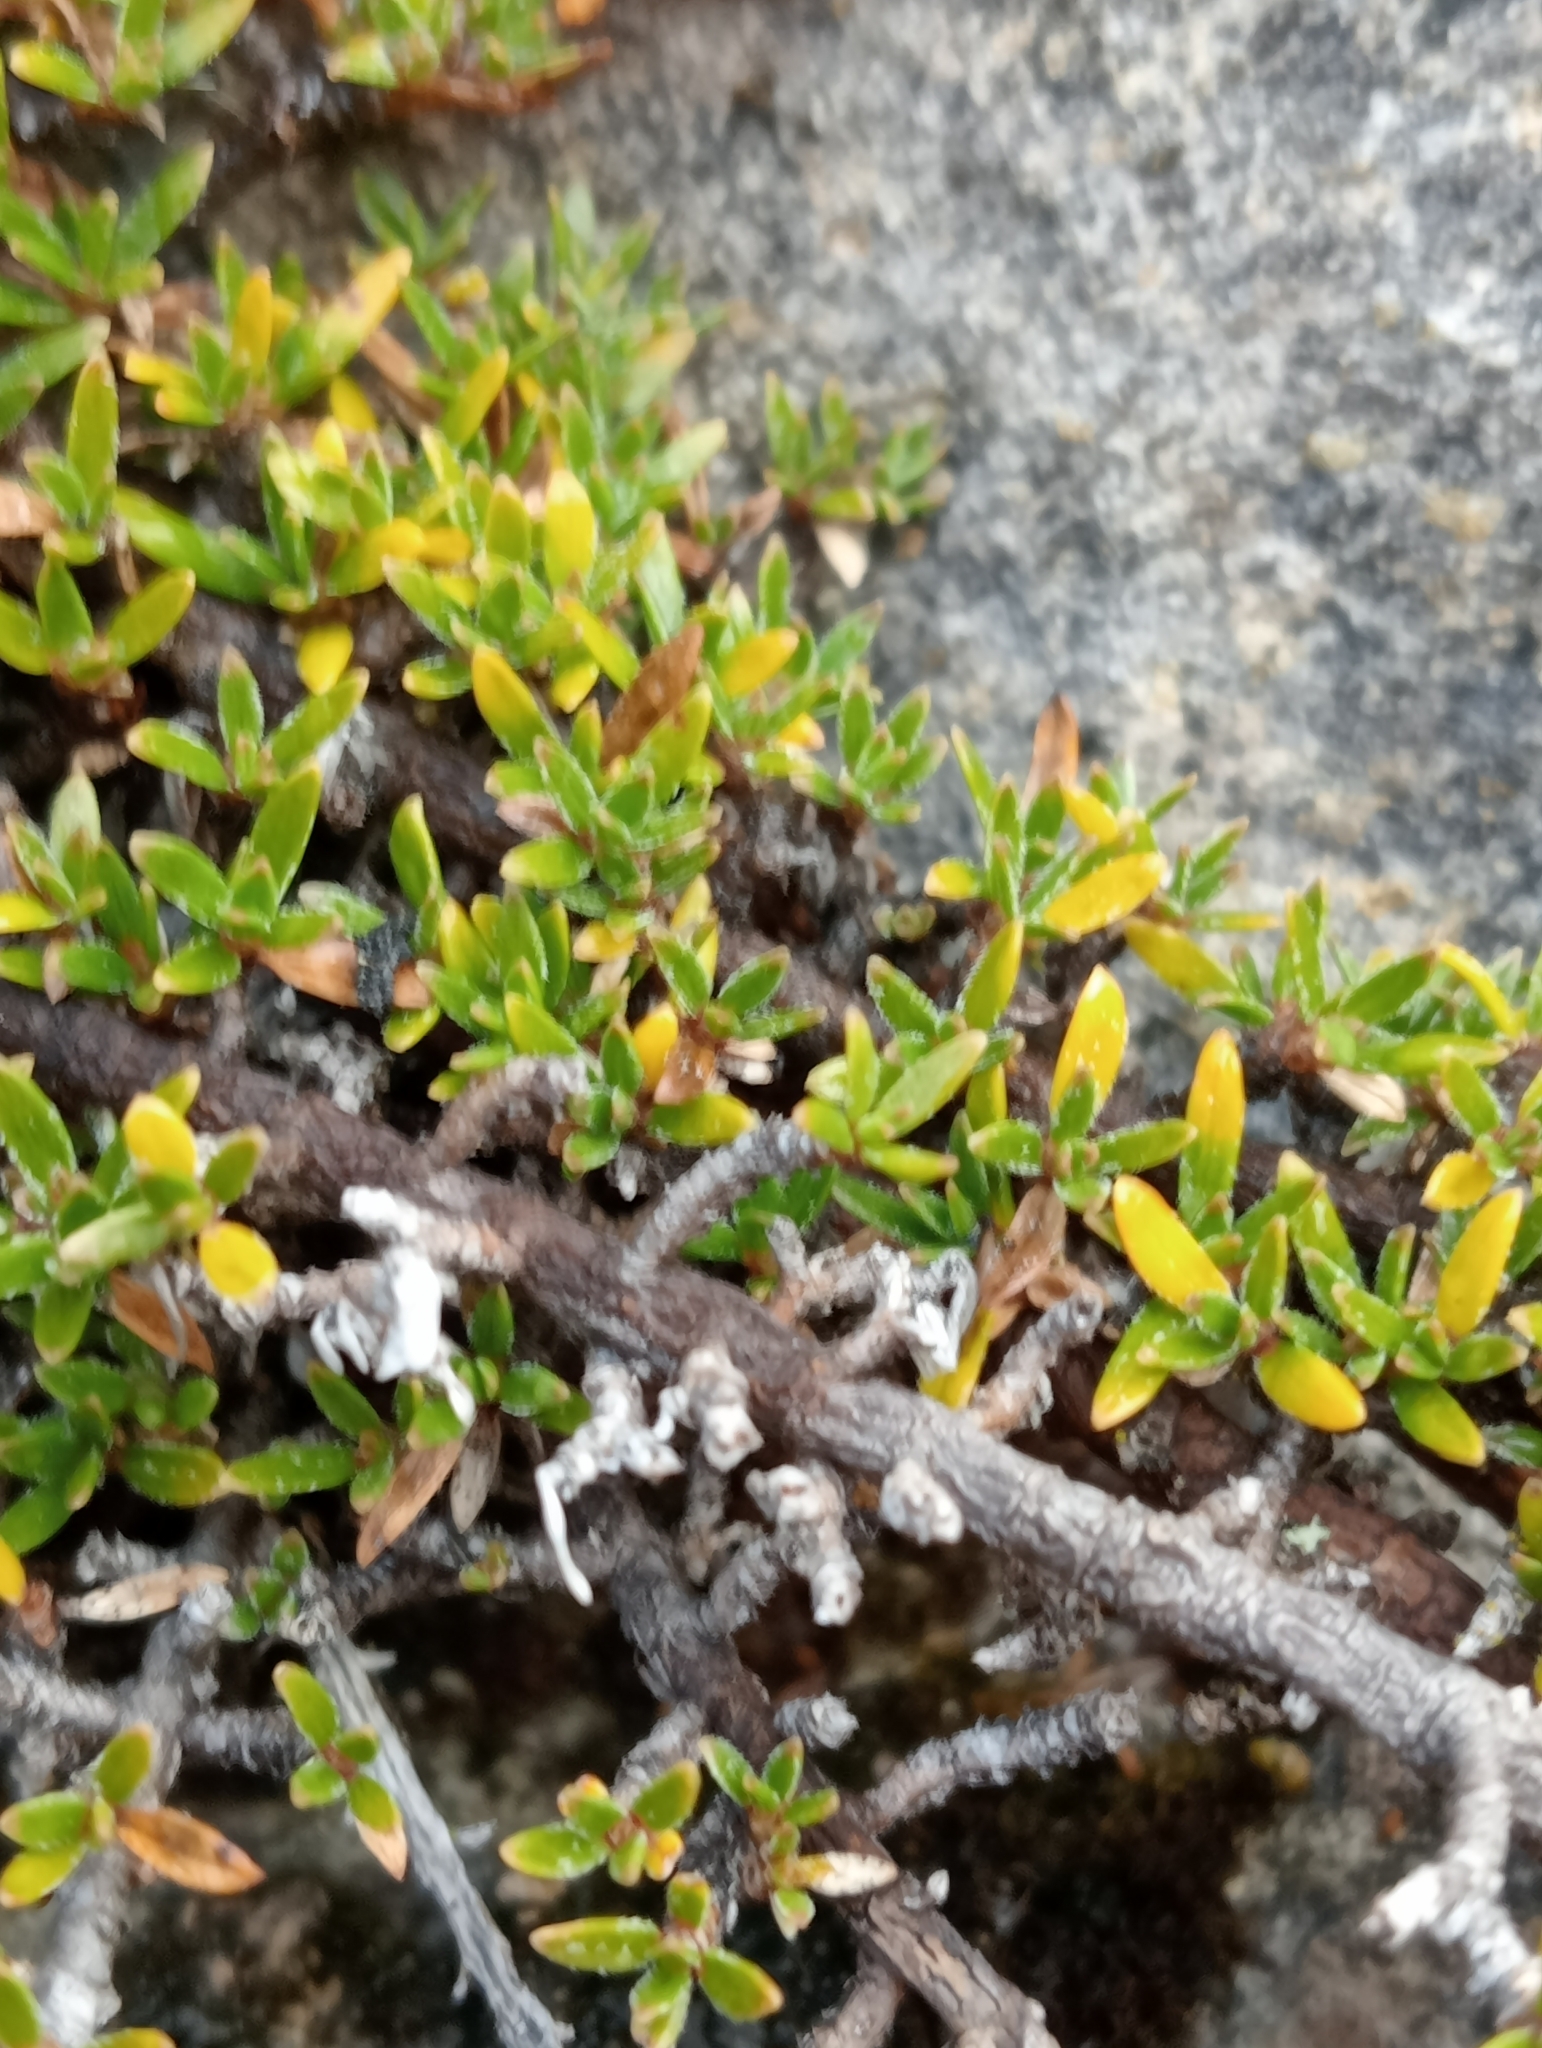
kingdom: Plantae
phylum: Tracheophyta
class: Magnoliopsida
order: Gentianales
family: Rubiaceae
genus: Coprosma
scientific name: Coprosma petriei
